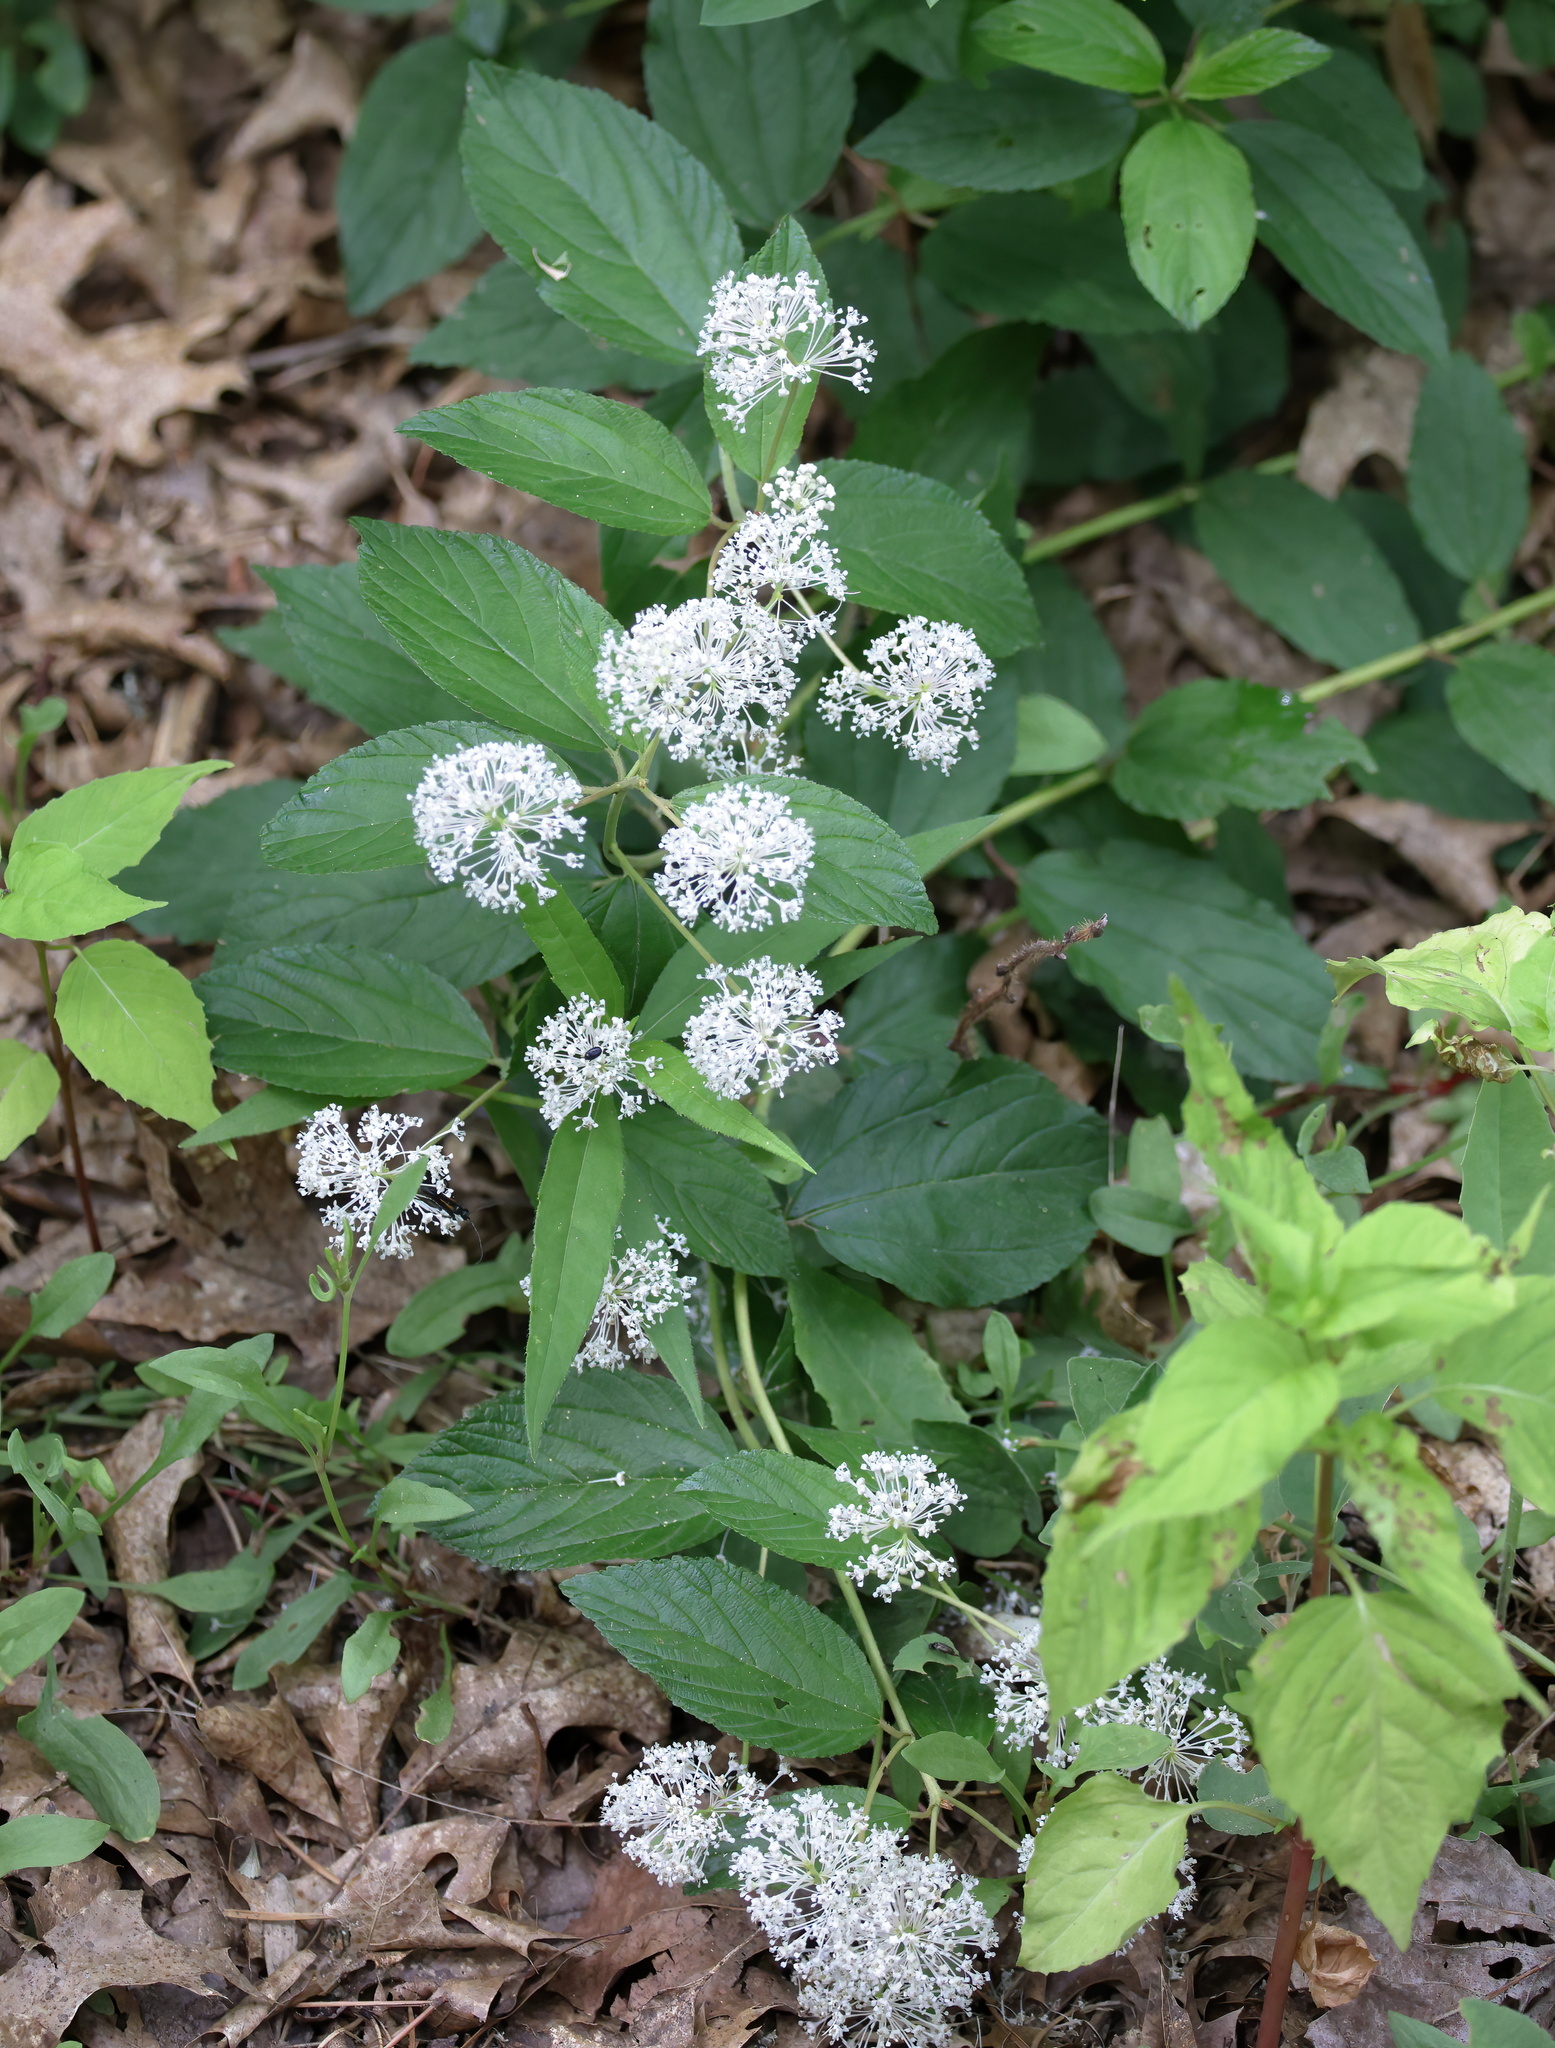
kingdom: Plantae
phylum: Tracheophyta
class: Magnoliopsida
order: Rosales
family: Rhamnaceae
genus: Ceanothus
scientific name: Ceanothus americanus
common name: Redroot
